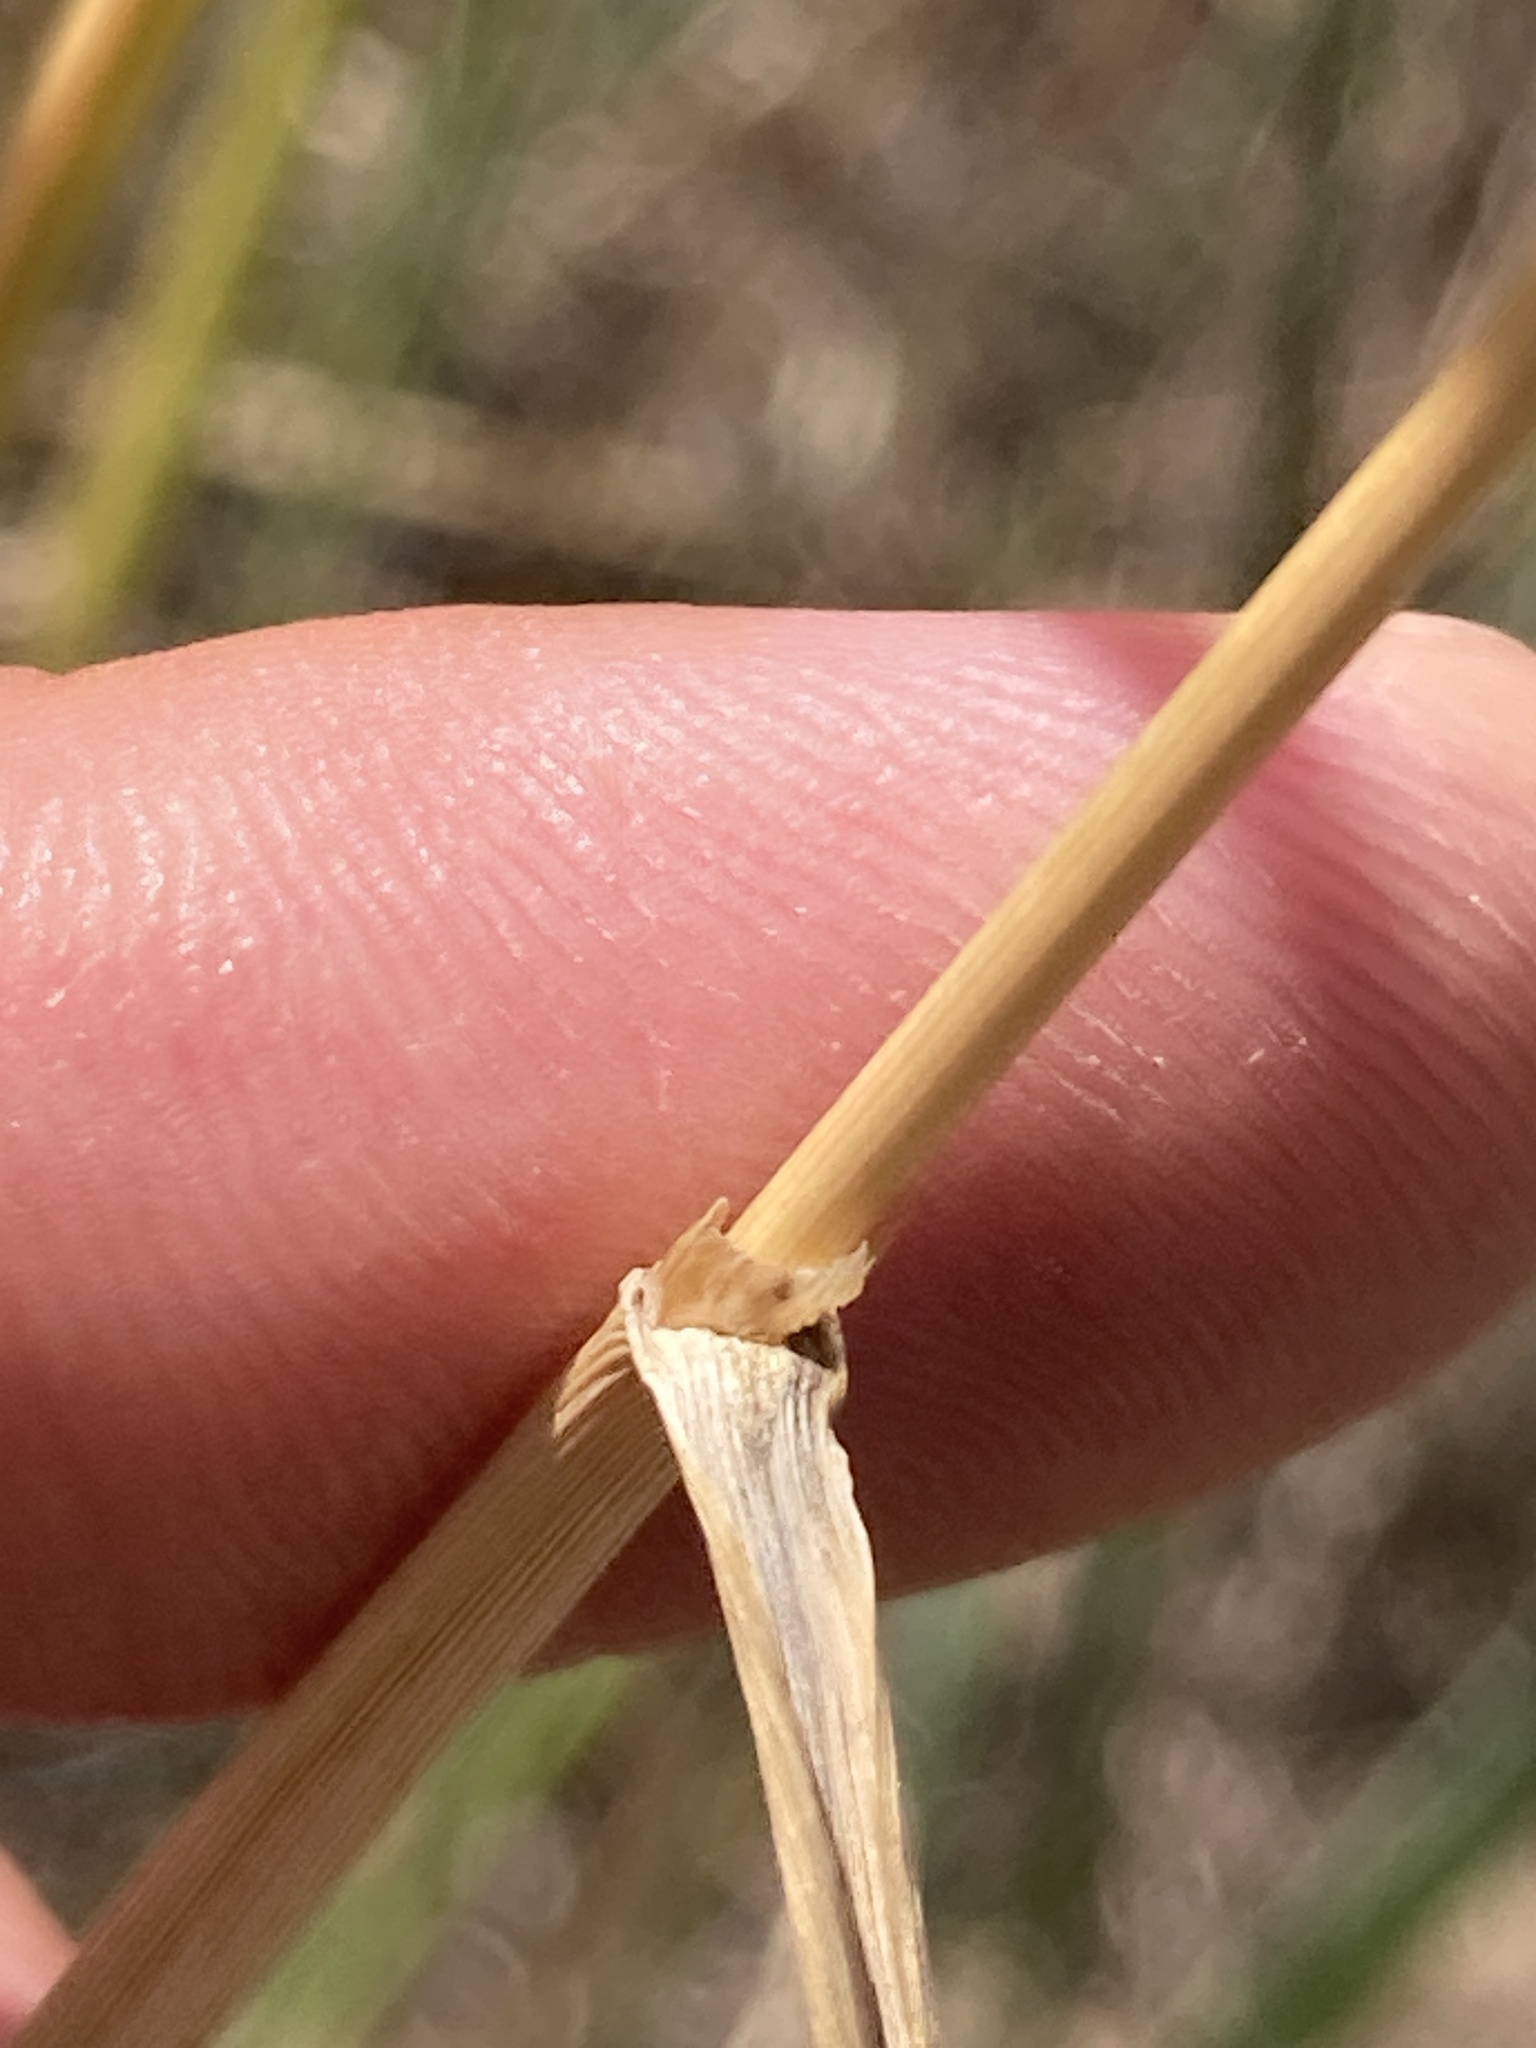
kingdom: Plantae
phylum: Tracheophyta
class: Liliopsida
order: Poales
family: Poaceae
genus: Calamagrostis
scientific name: Calamagrostis epigejos
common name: Wood small-reed
